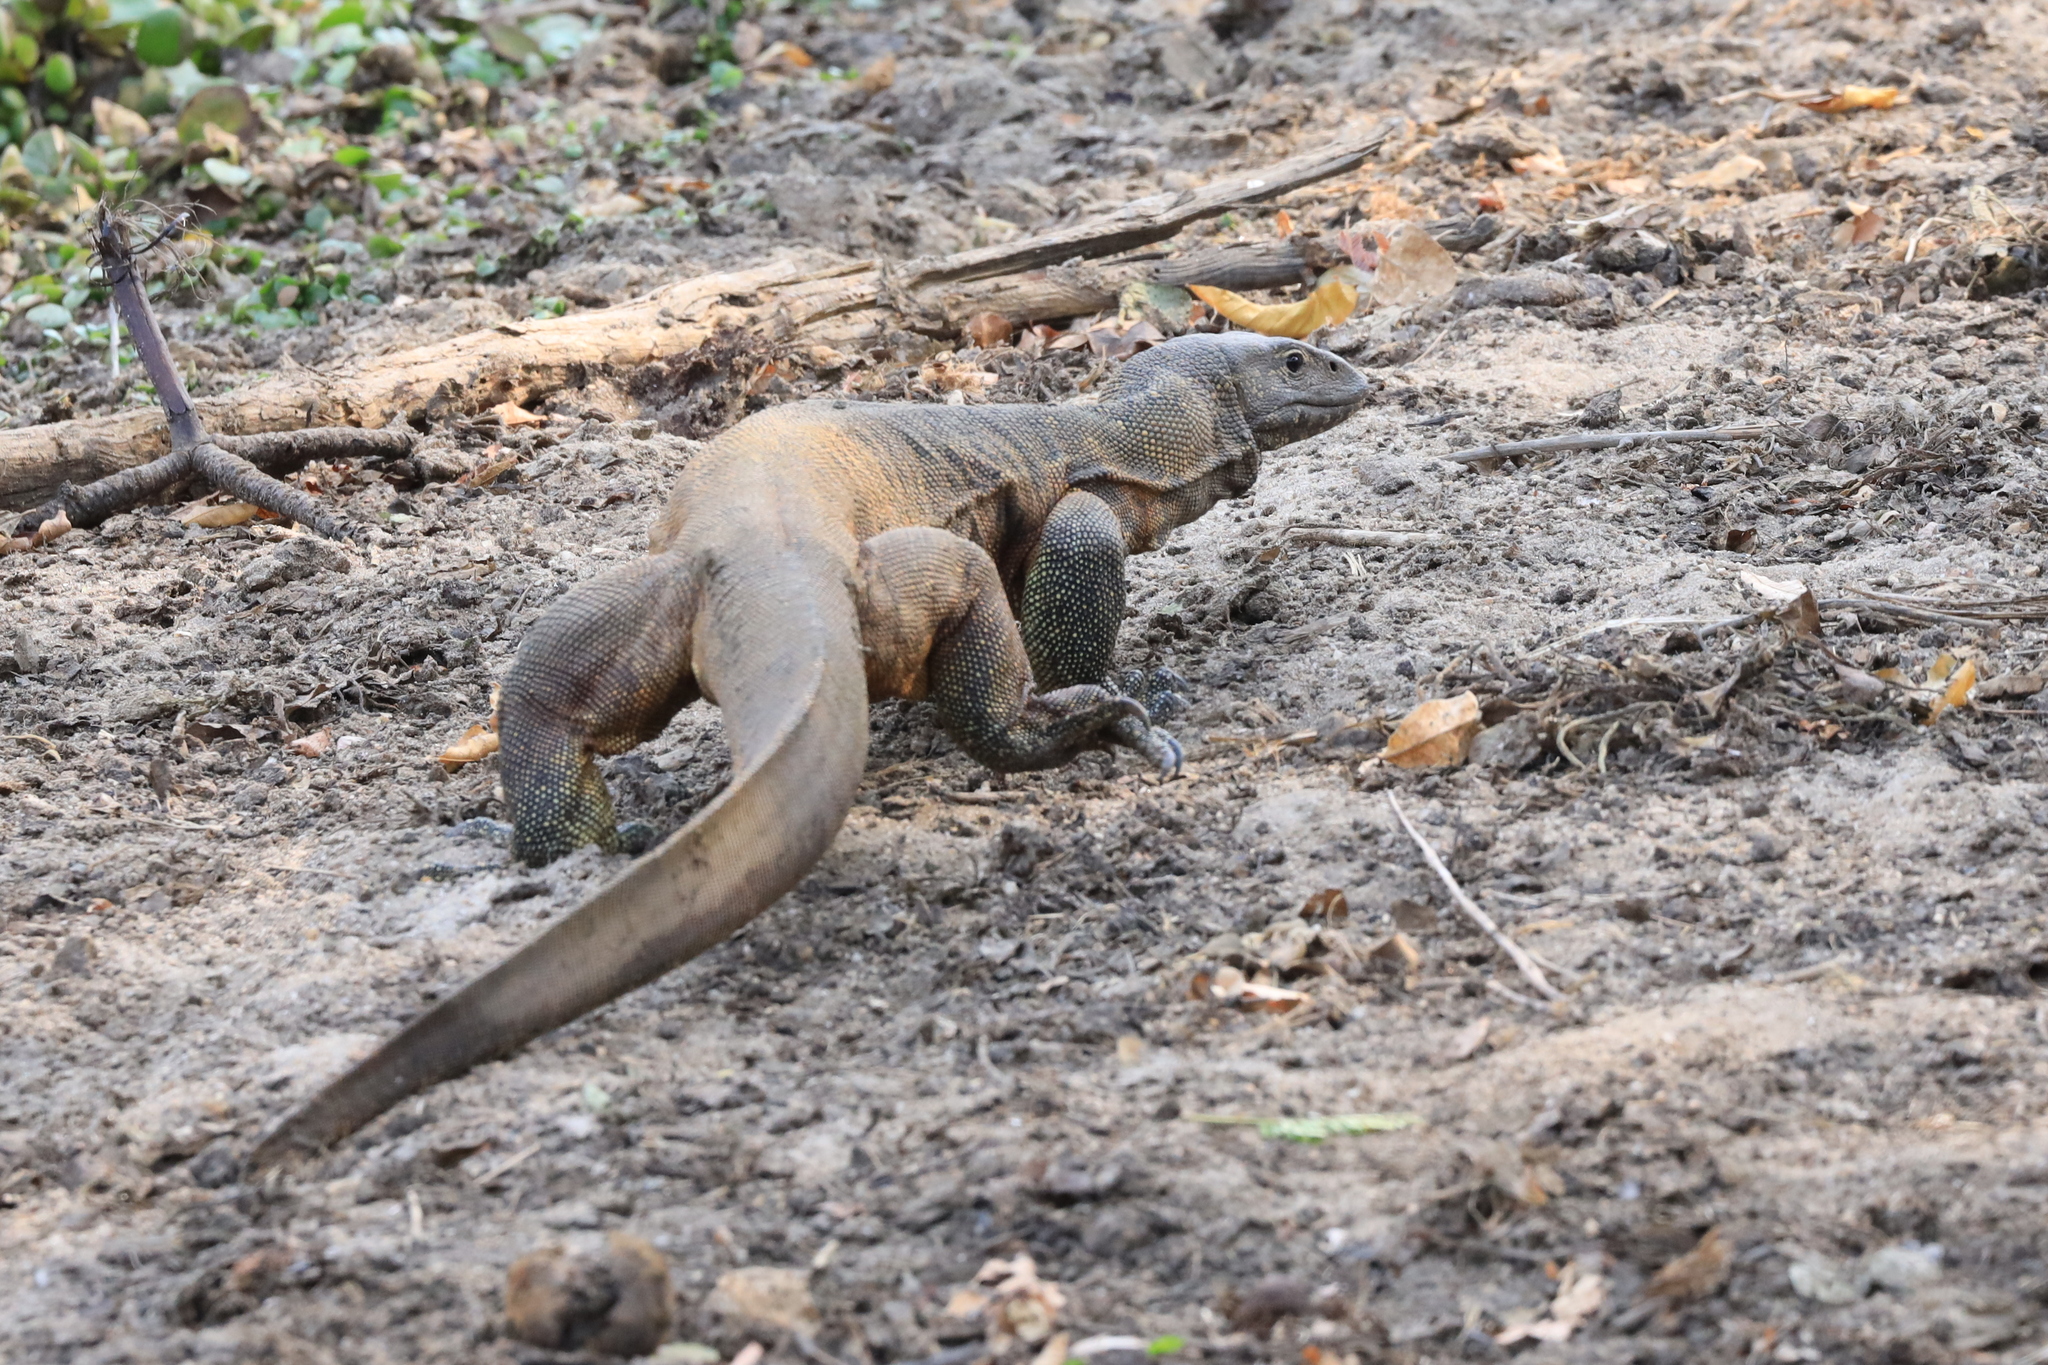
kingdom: Animalia
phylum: Chordata
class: Squamata
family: Varanidae
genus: Varanus
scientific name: Varanus niloticus
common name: Nile monitor
